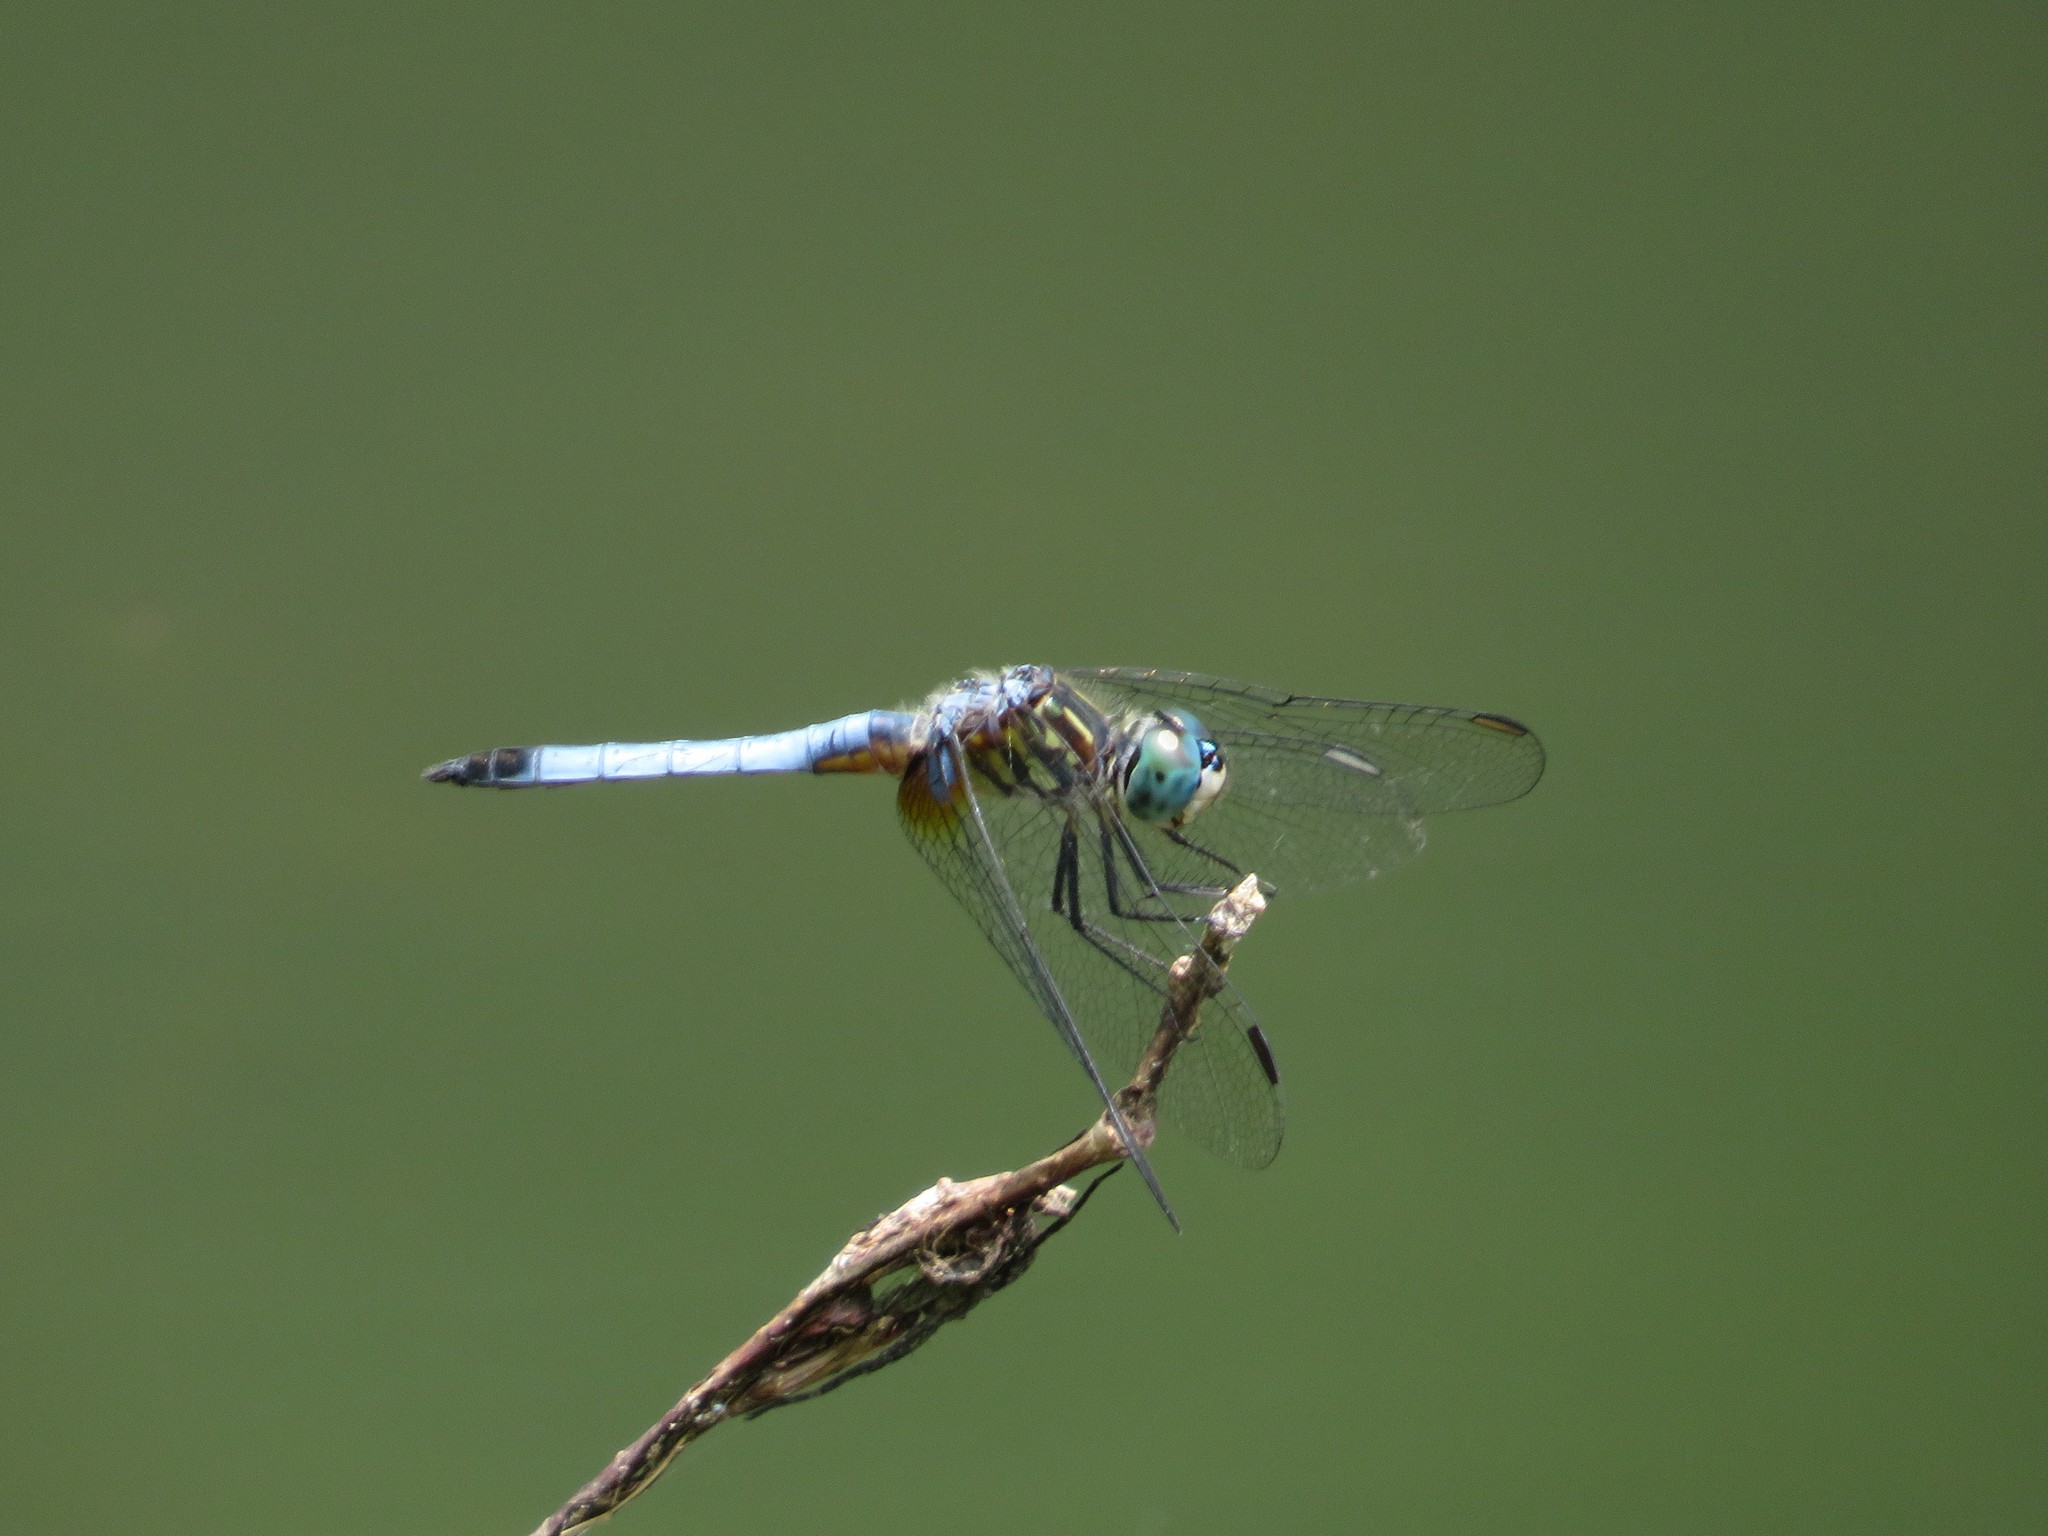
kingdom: Animalia
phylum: Arthropoda
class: Insecta
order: Odonata
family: Libellulidae
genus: Pachydiplax
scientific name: Pachydiplax longipennis
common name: Blue dasher
